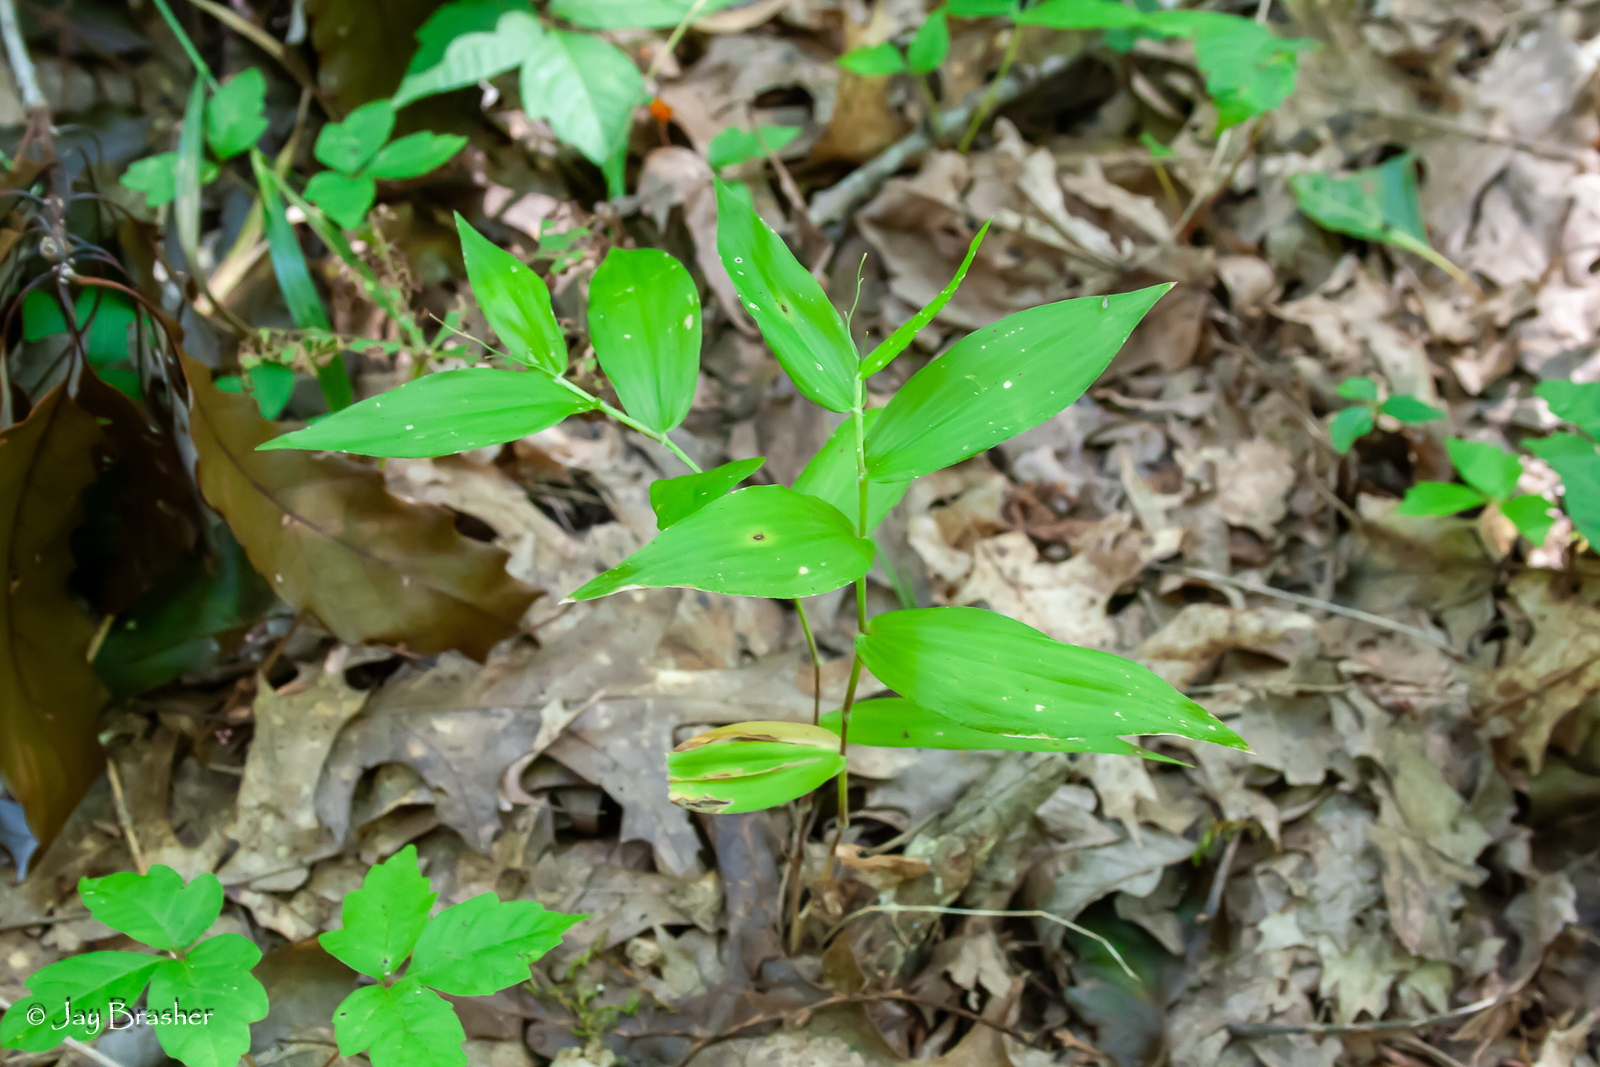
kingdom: Plantae
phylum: Tracheophyta
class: Liliopsida
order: Poales
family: Poaceae
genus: Dichanthelium
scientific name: Dichanthelium boscii
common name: Bosc's panic grass
